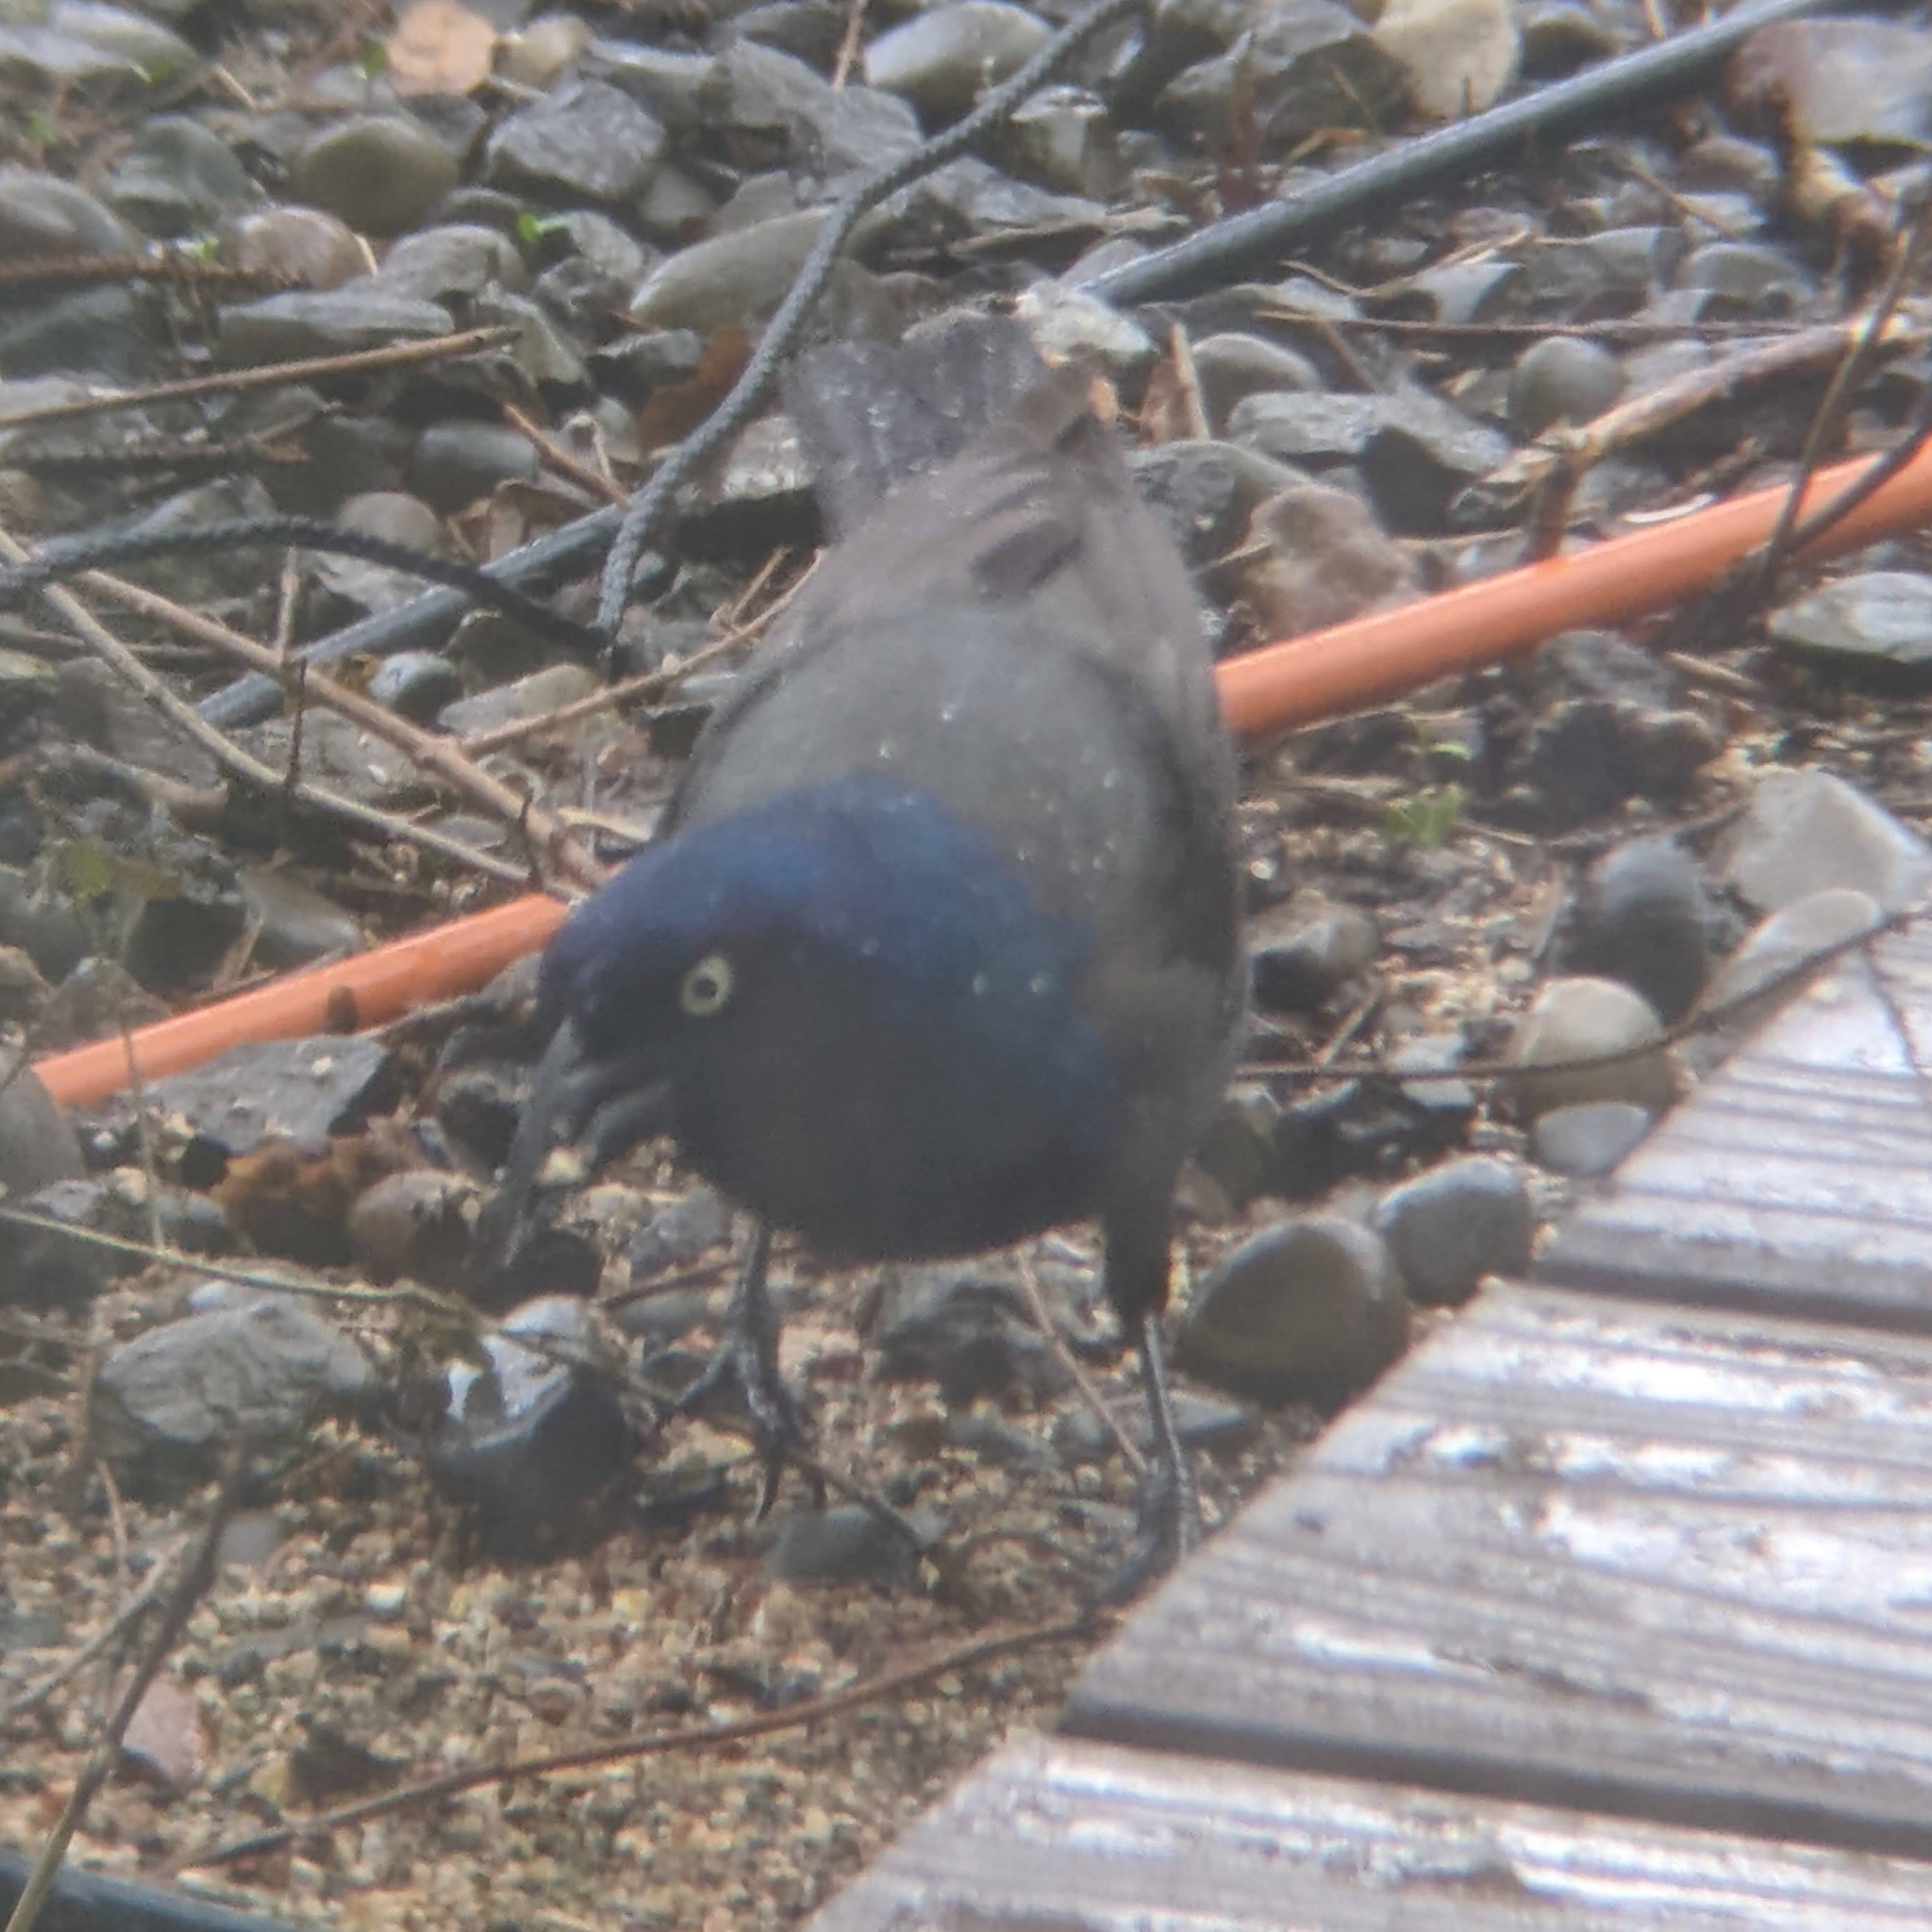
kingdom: Animalia
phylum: Chordata
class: Aves
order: Passeriformes
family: Icteridae
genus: Quiscalus
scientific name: Quiscalus quiscula
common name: Common grackle
